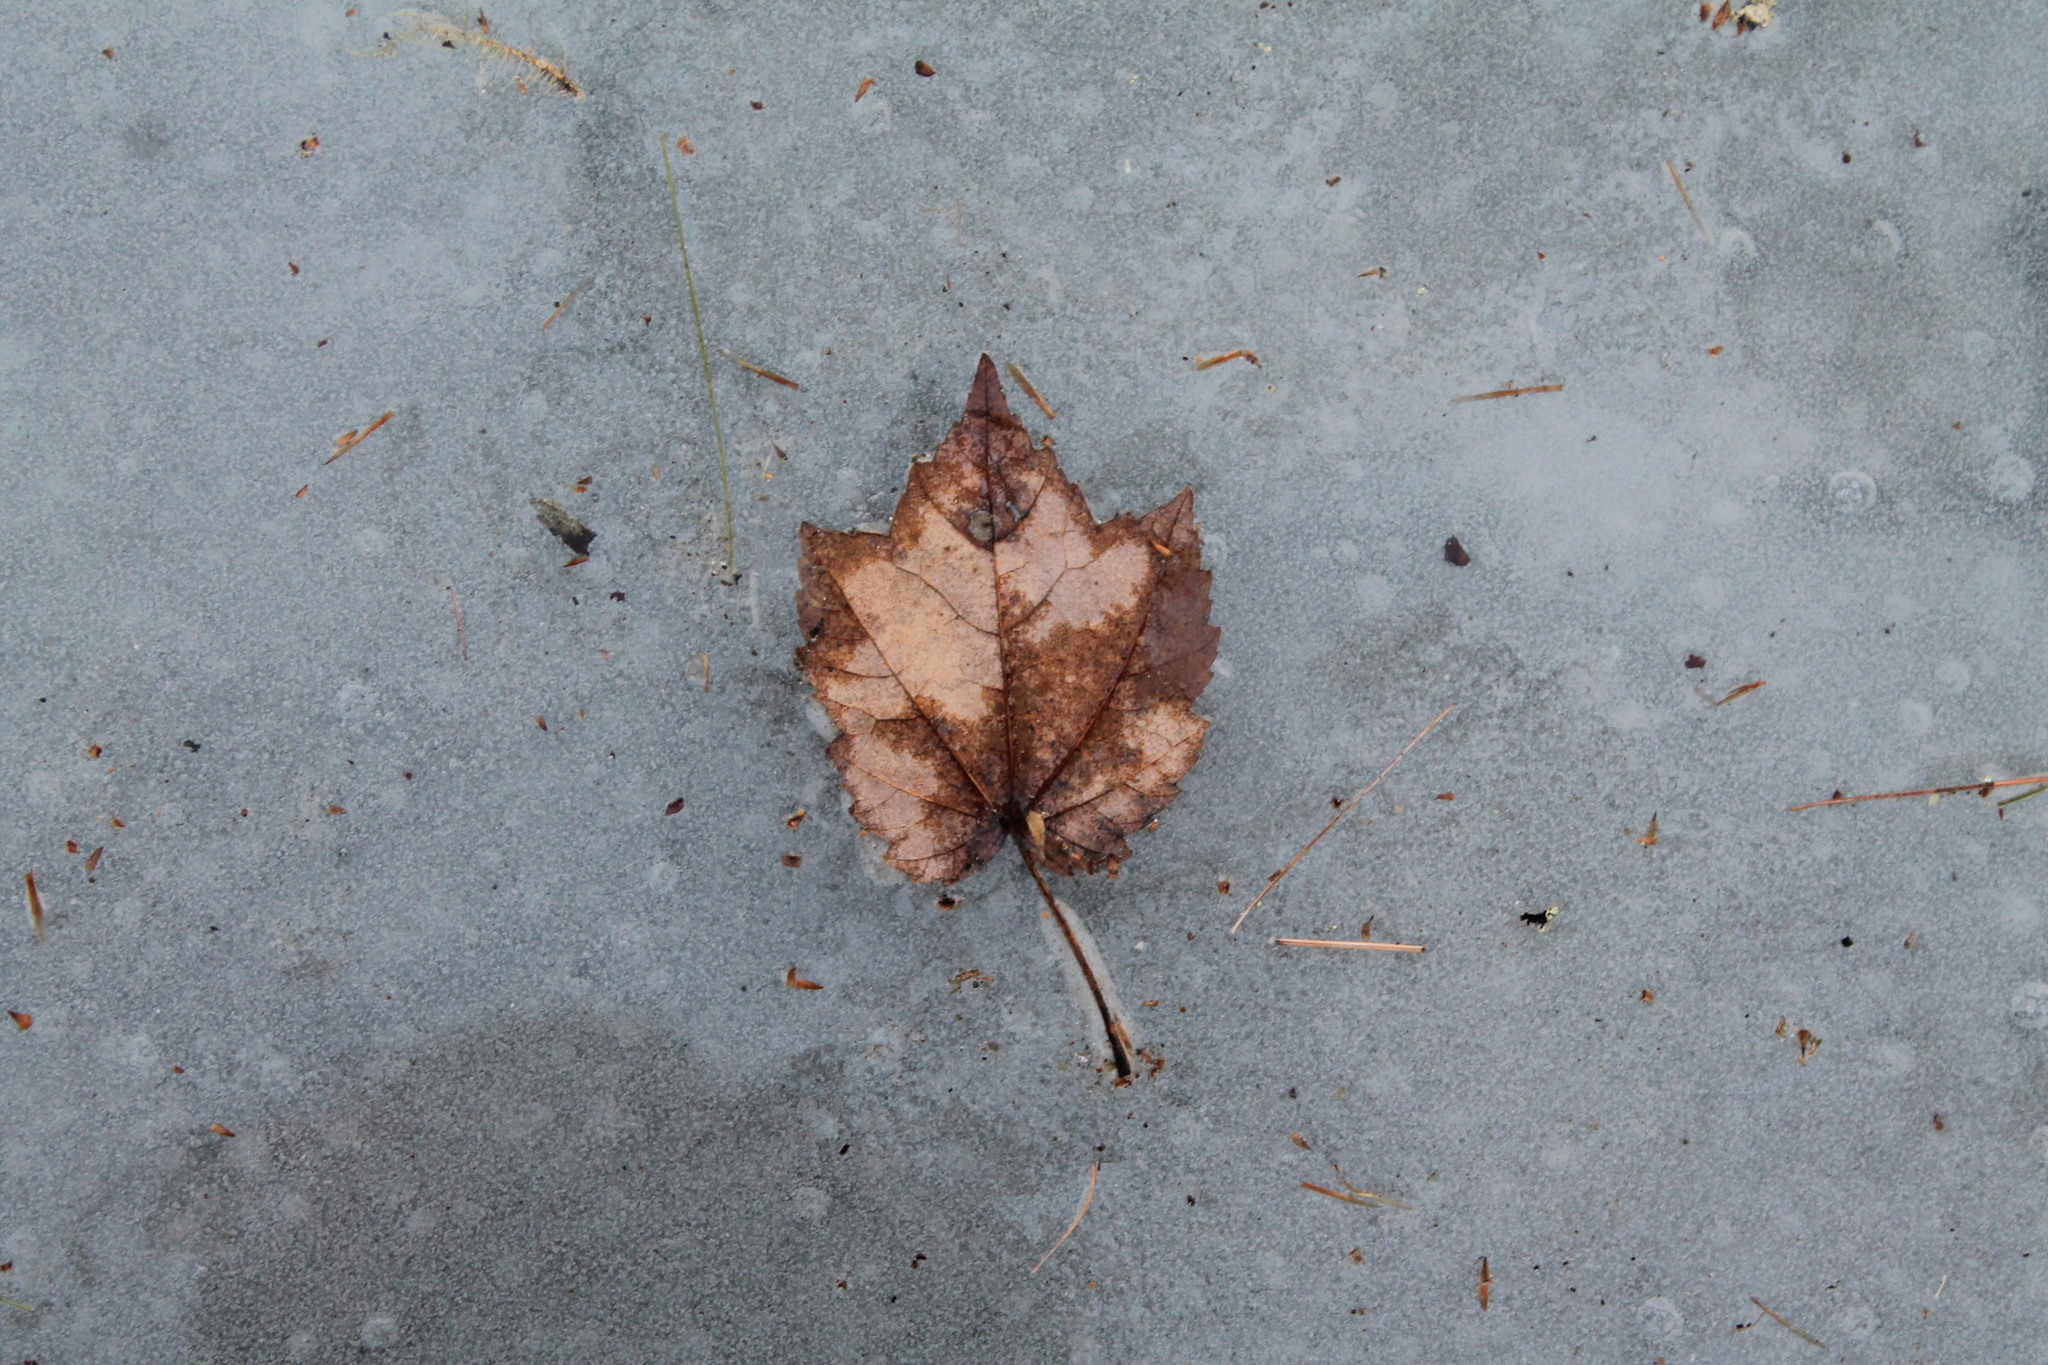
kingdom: Plantae
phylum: Tracheophyta
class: Magnoliopsida
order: Sapindales
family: Sapindaceae
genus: Acer
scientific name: Acer rubrum
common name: Red maple
